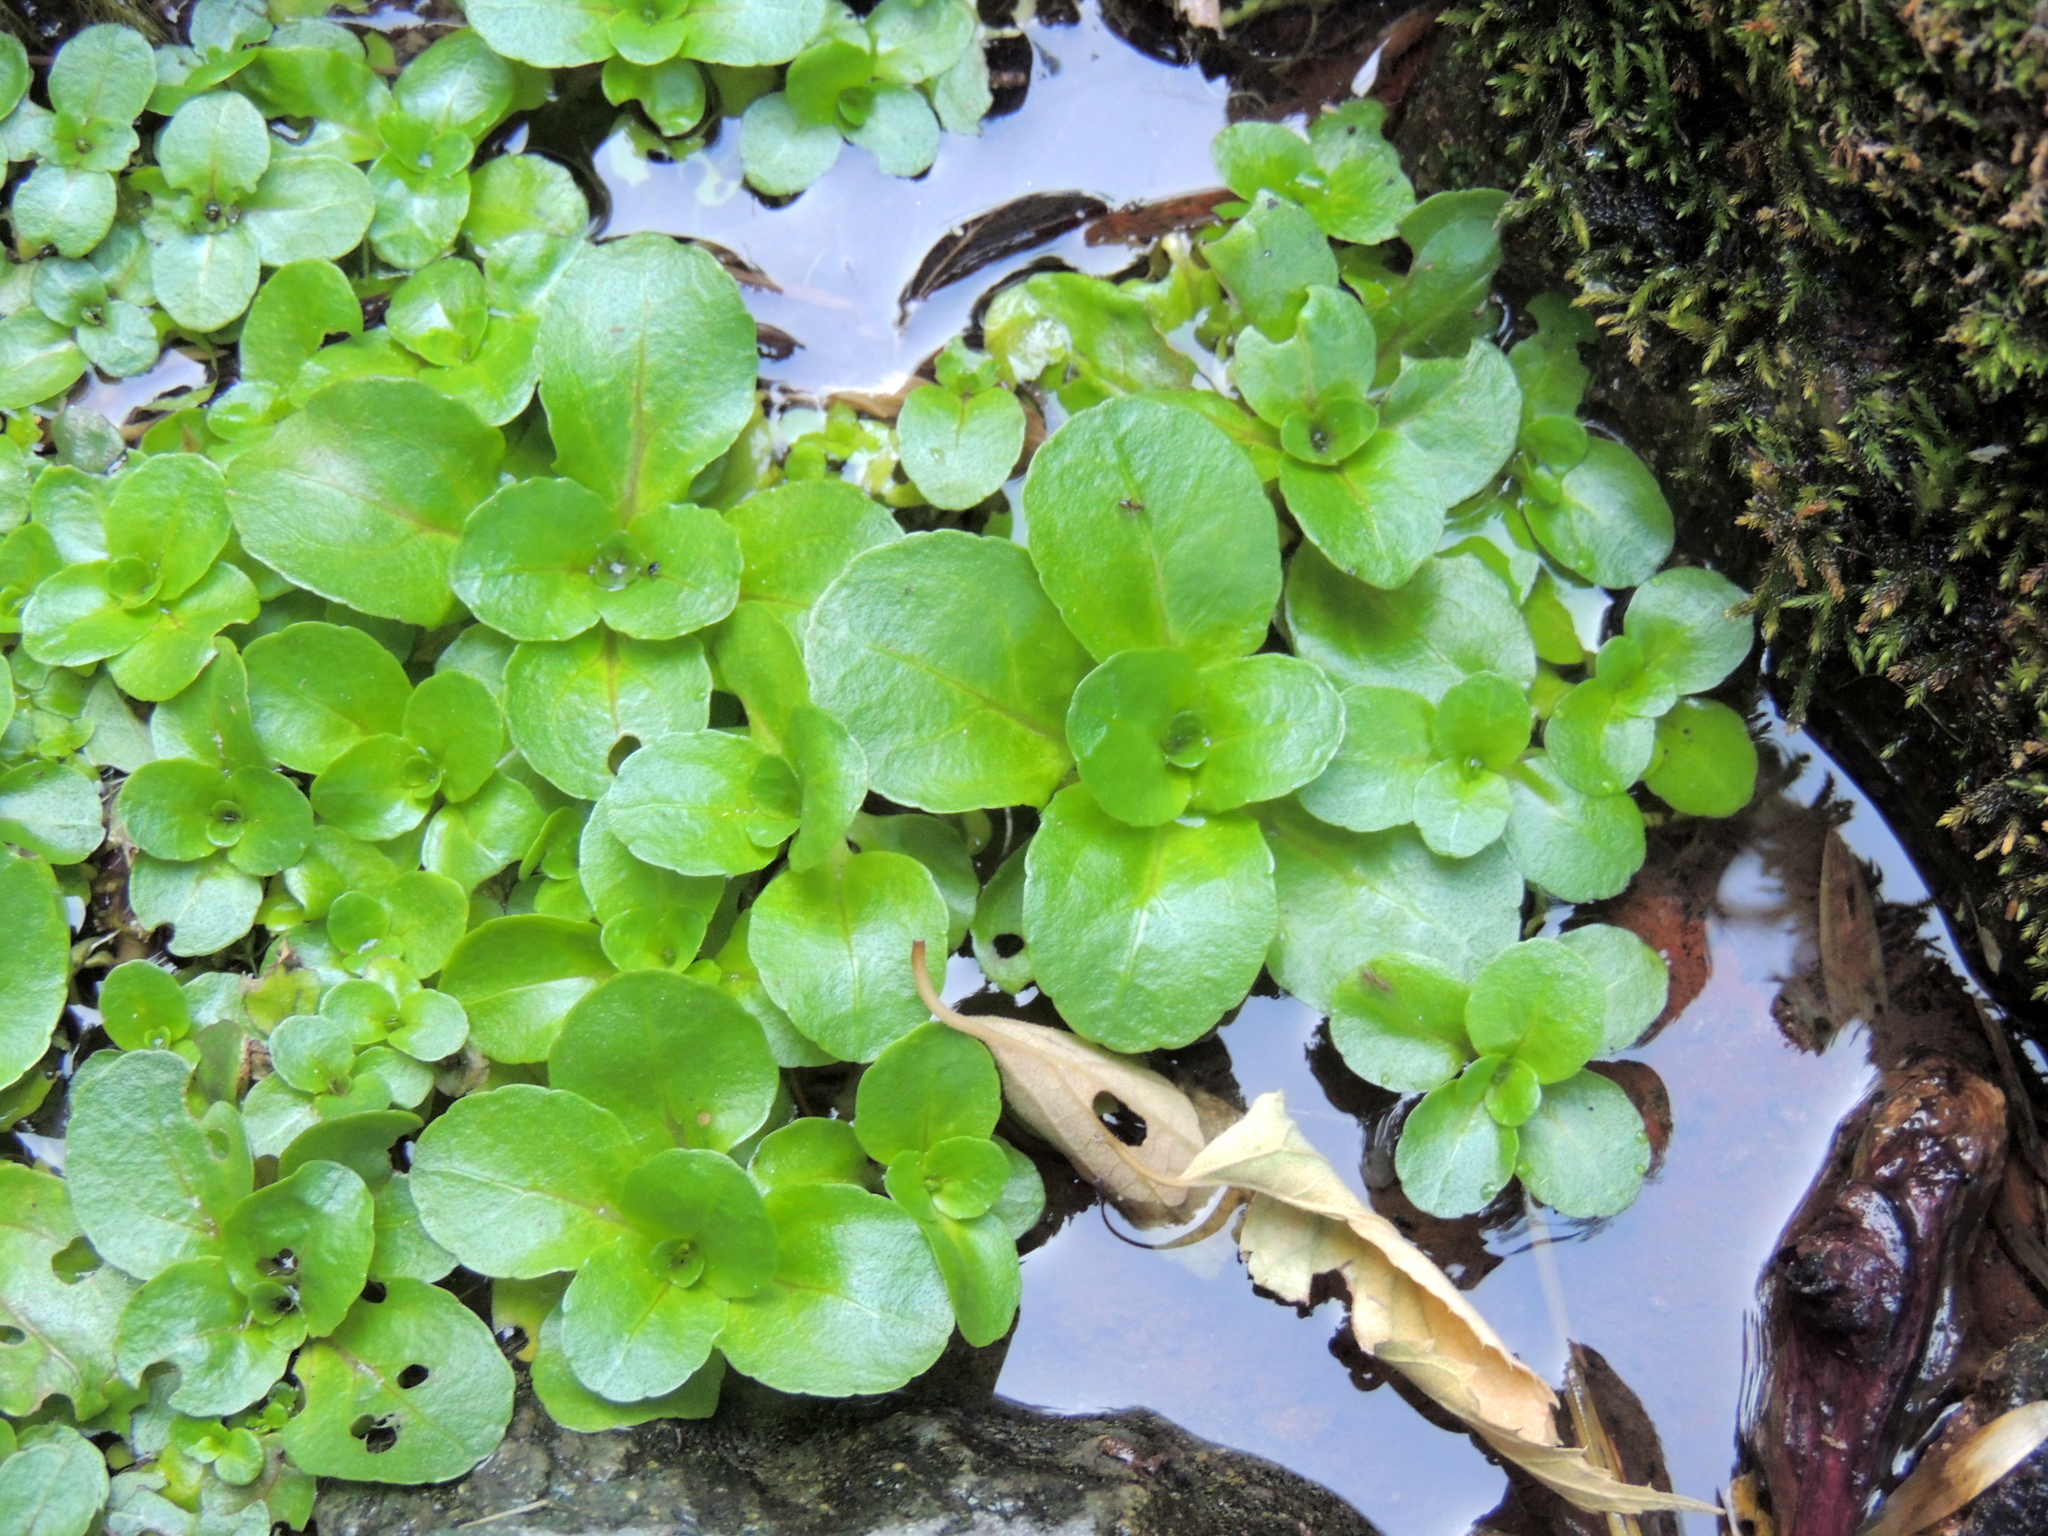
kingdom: Plantae
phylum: Tracheophyta
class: Magnoliopsida
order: Lamiales
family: Plantaginaceae
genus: Veronica
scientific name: Veronica beccabunga
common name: Brooklime
